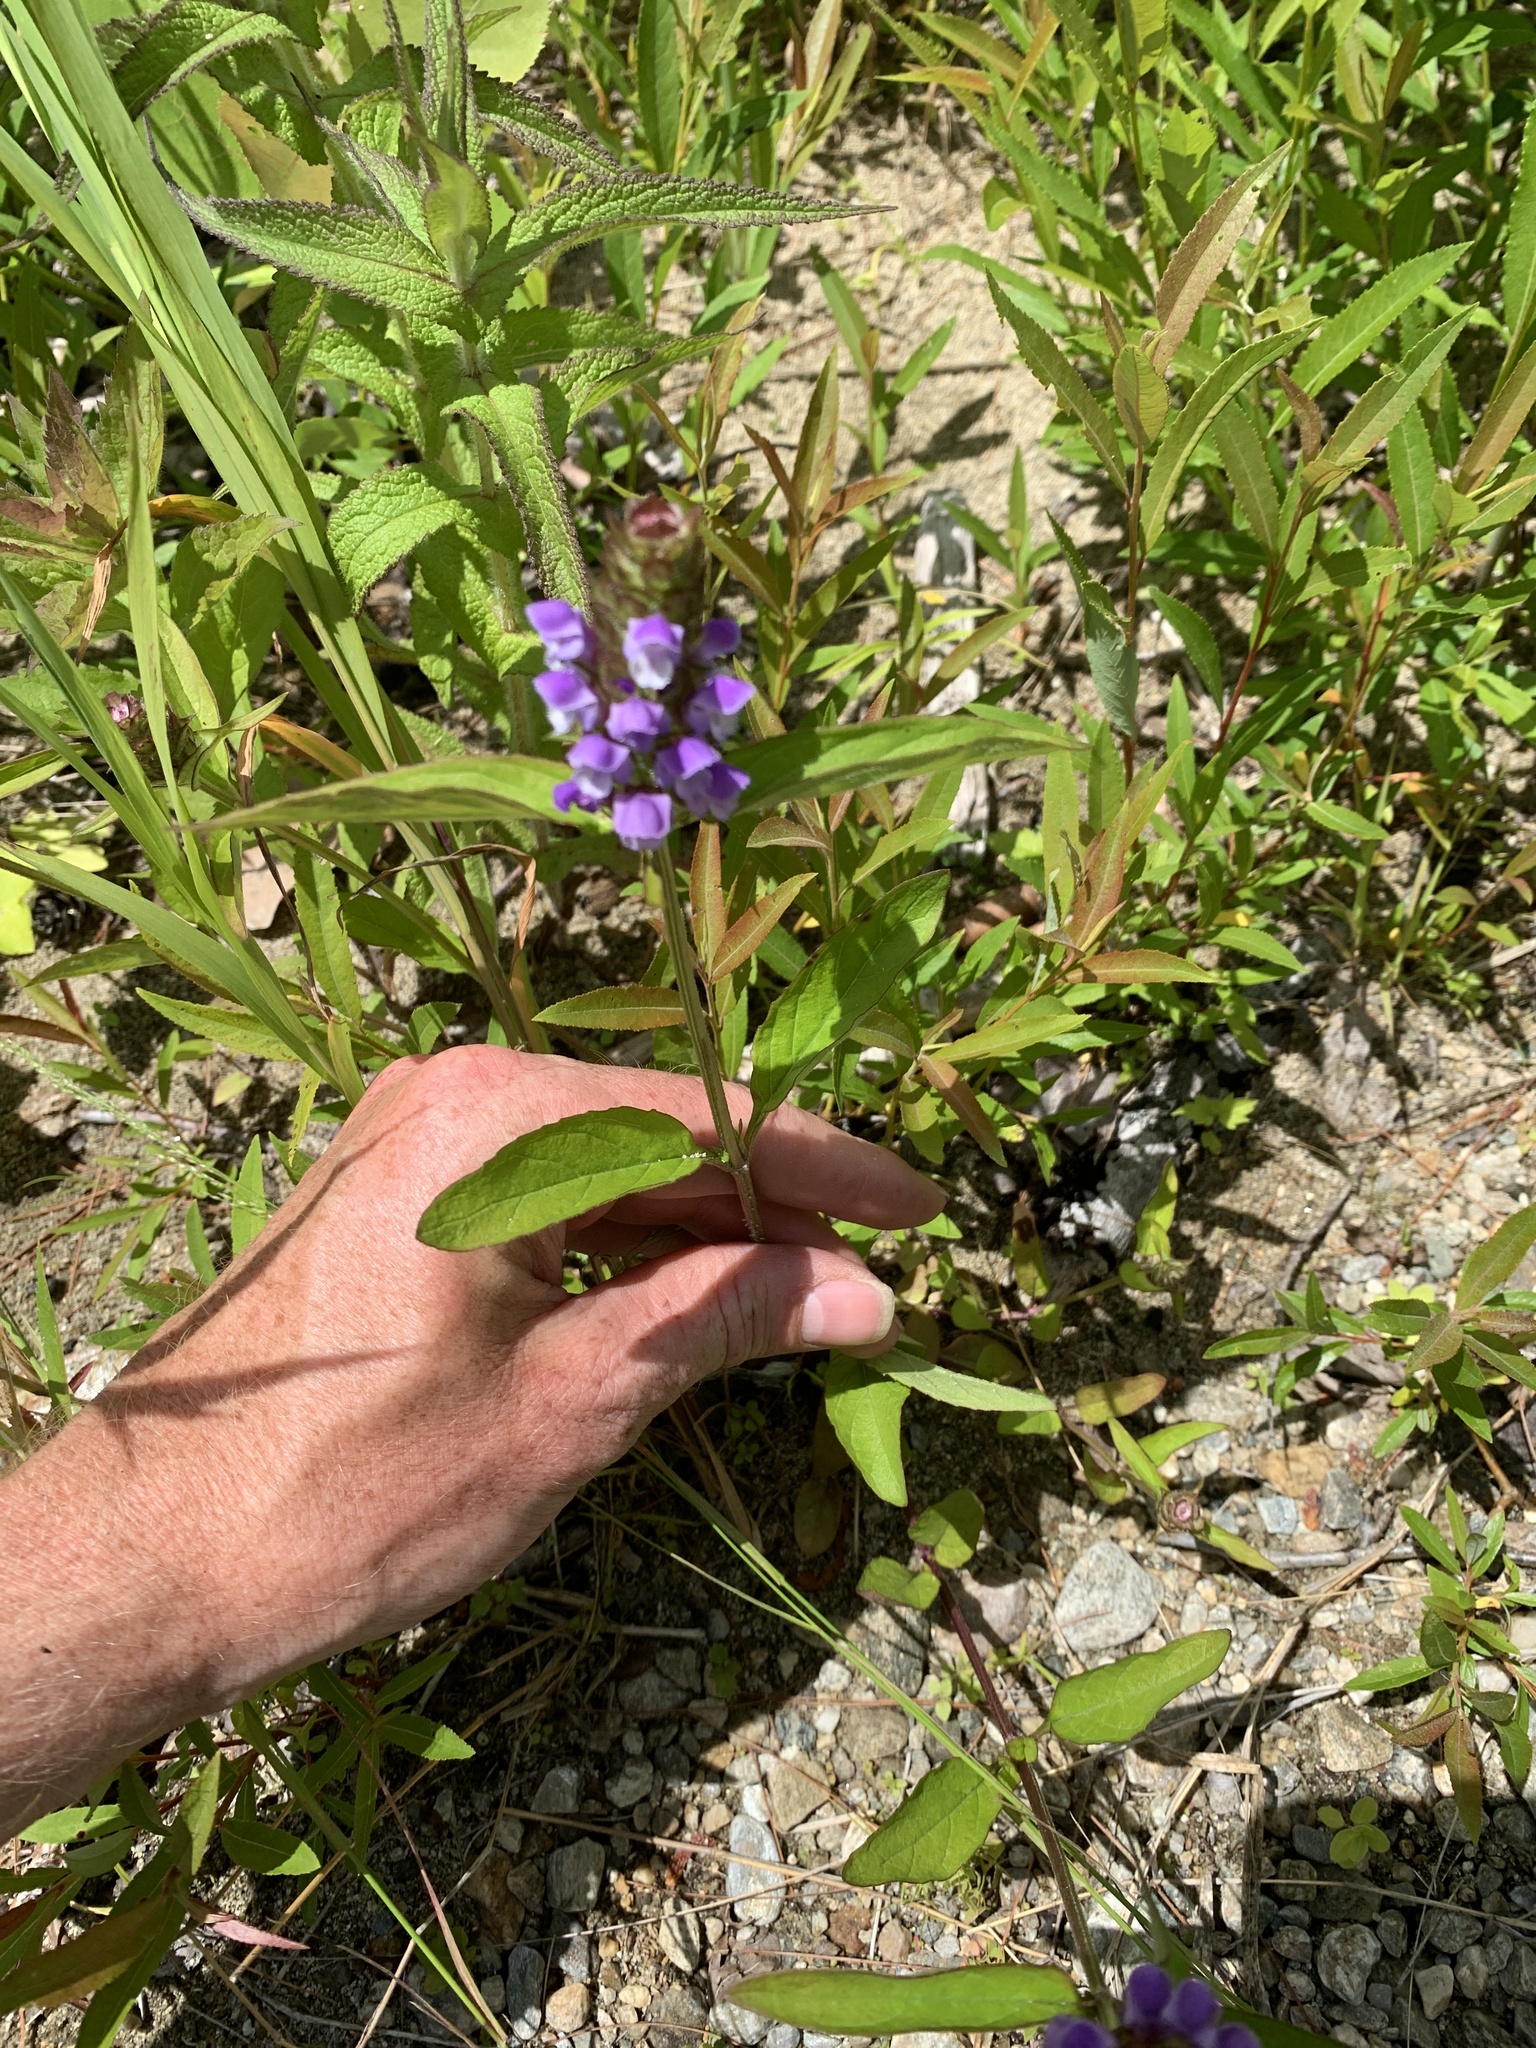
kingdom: Plantae
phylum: Tracheophyta
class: Magnoliopsida
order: Lamiales
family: Lamiaceae
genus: Prunella
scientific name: Prunella vulgaris
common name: Heal-all
